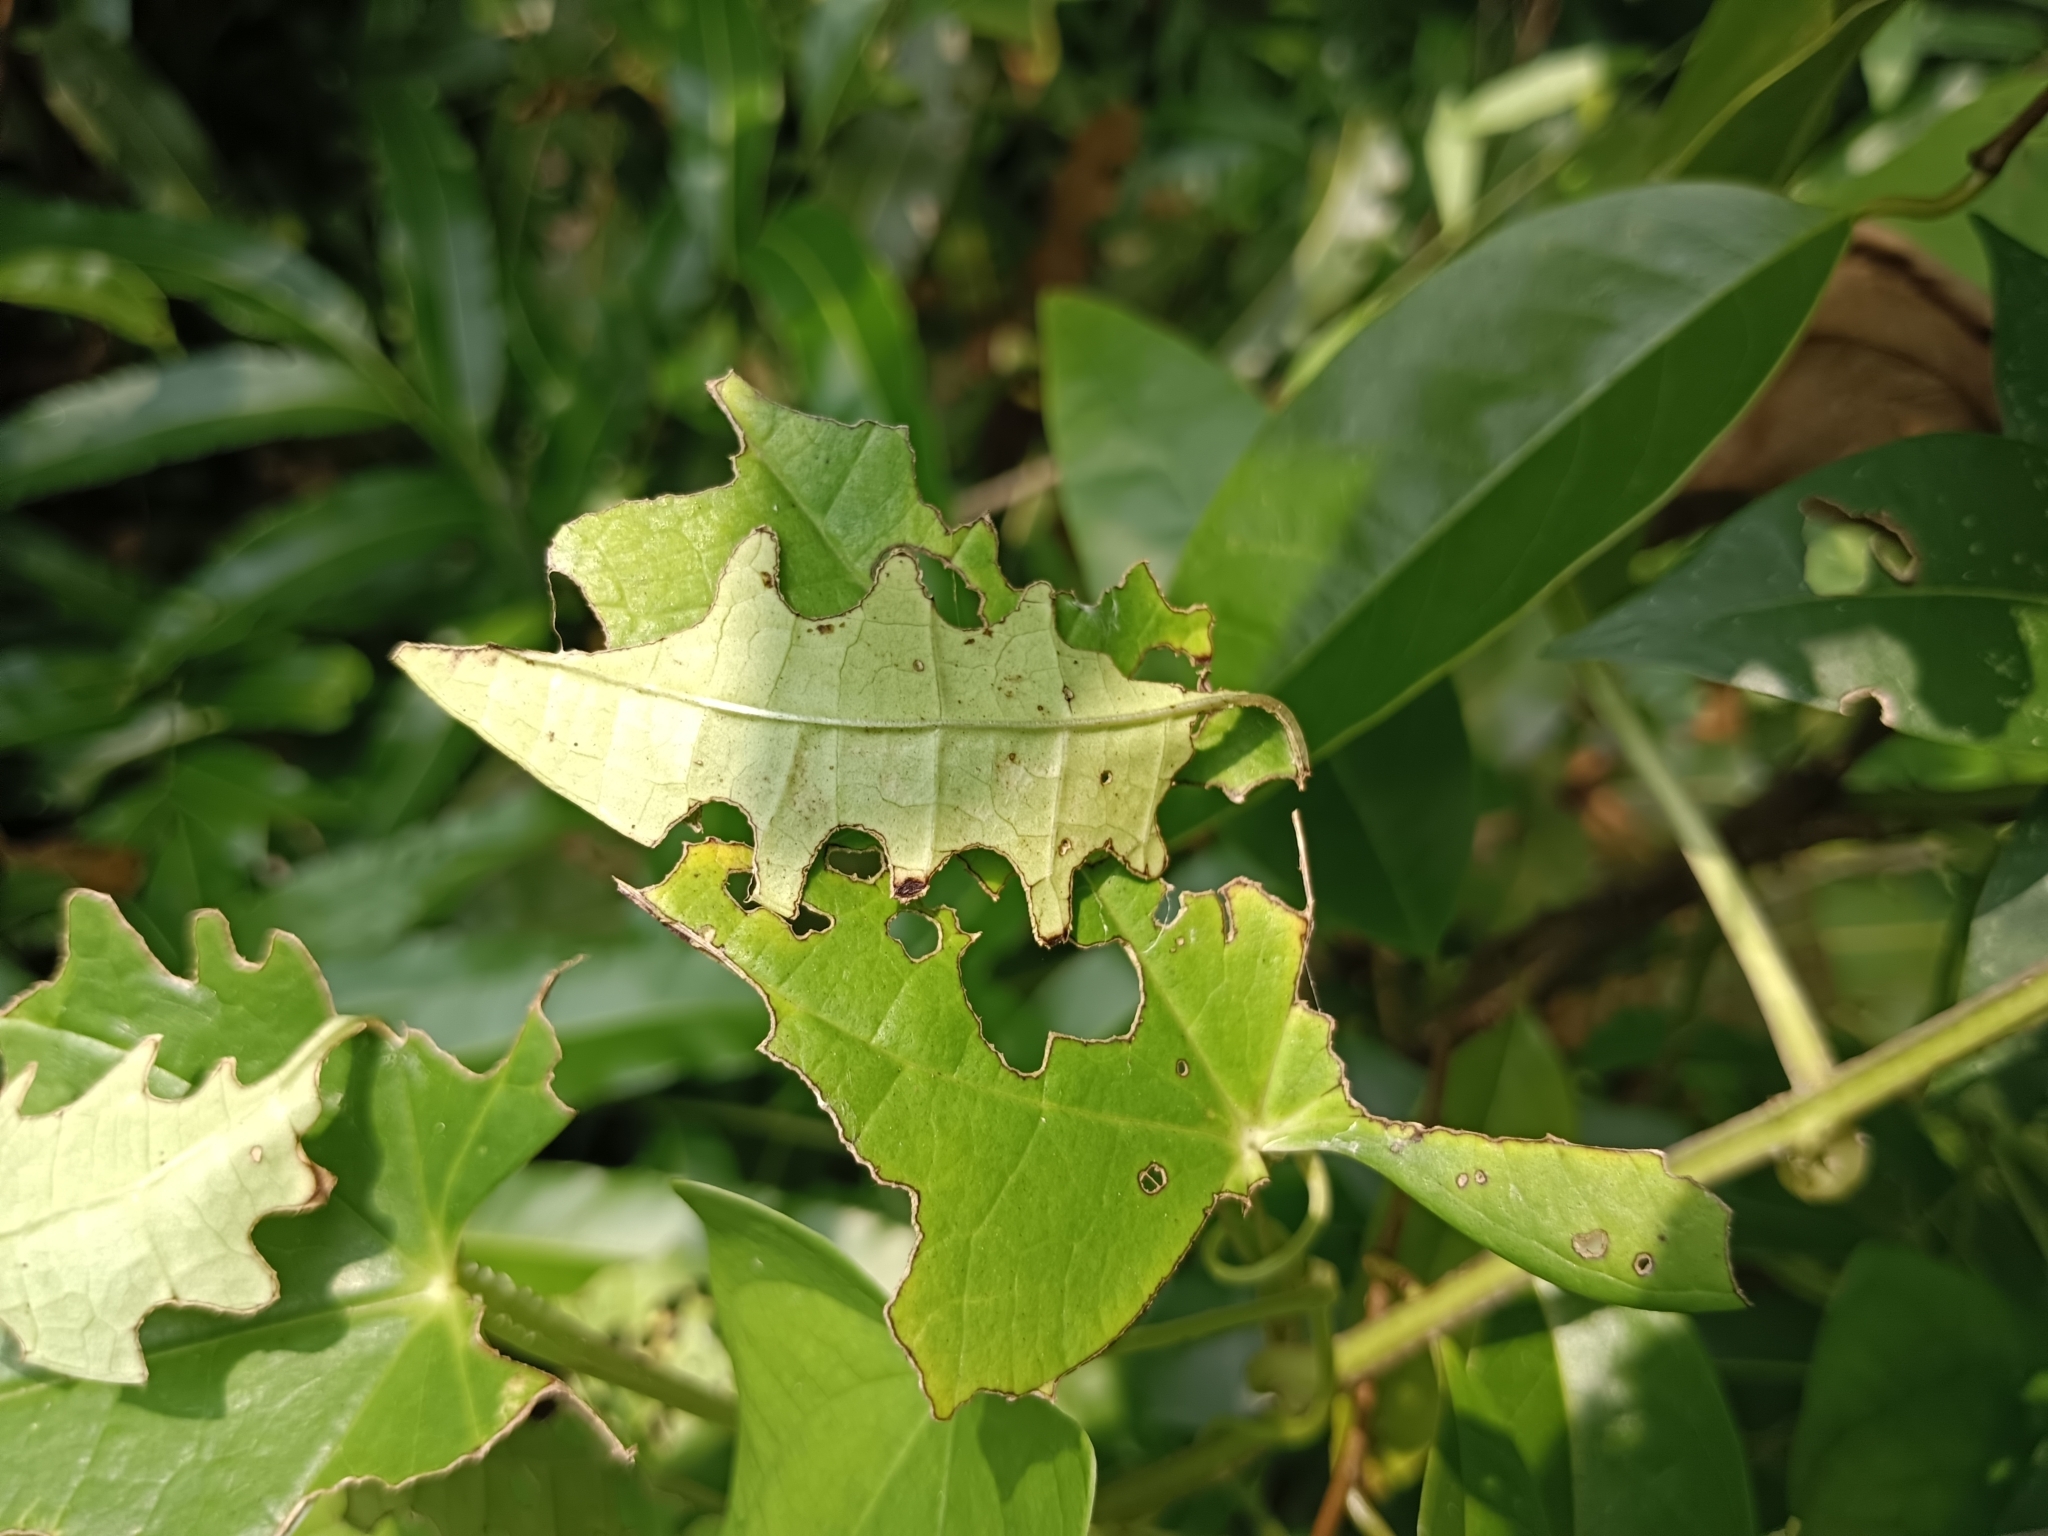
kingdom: Animalia
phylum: Arthropoda
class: Insecta
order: Lepidoptera
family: Hesperiidae
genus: Tagiades
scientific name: Tagiades litigiosa
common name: Water snow flat
